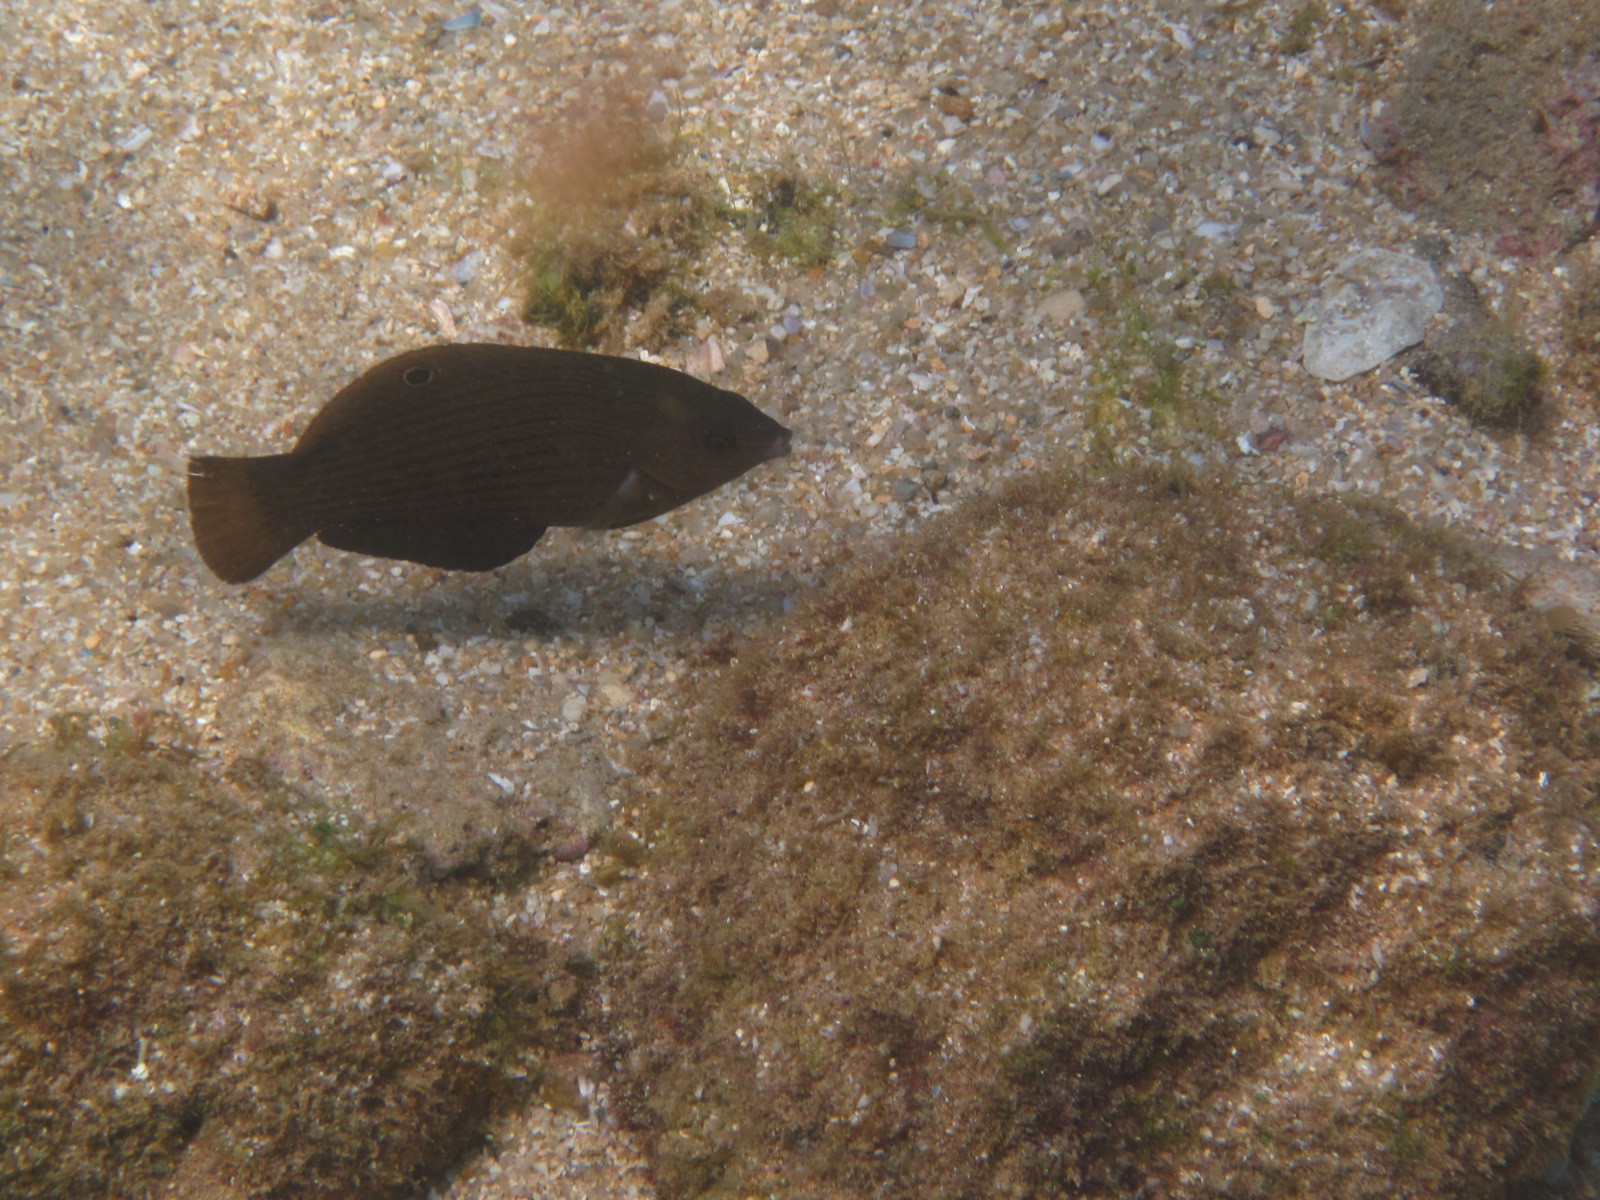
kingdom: Animalia
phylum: Chordata
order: Perciformes
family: Labridae
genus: Halichoeres
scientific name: Halichoeres marginatus
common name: Dusky wrasse
